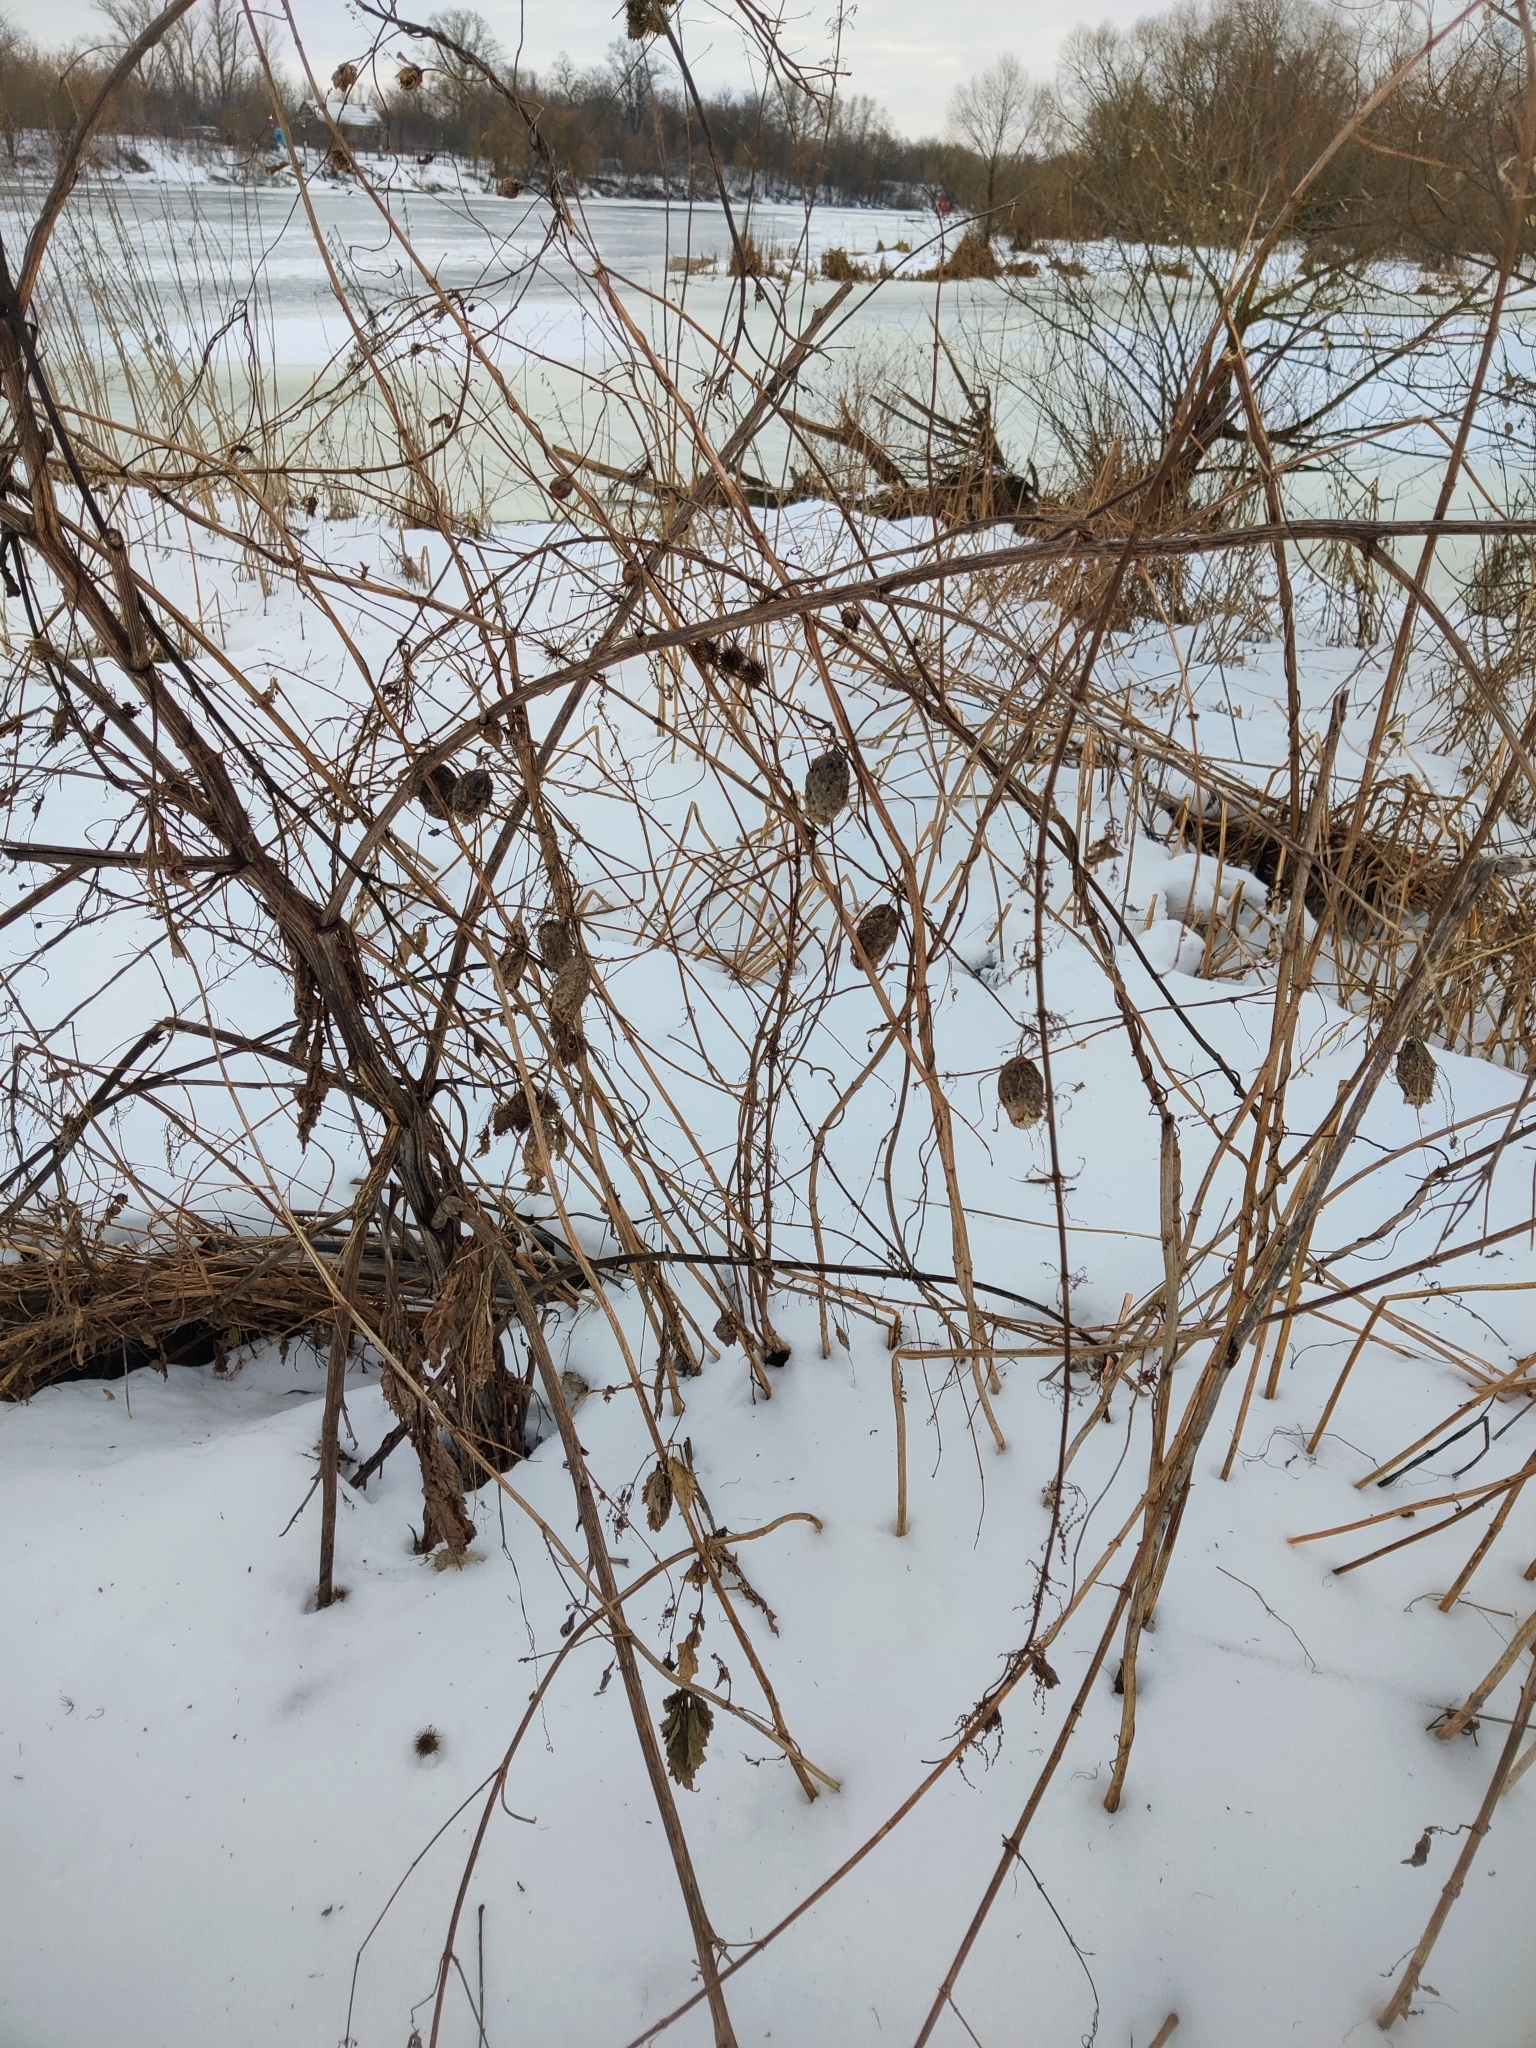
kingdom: Plantae
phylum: Tracheophyta
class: Magnoliopsida
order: Cucurbitales
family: Cucurbitaceae
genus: Echinocystis
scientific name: Echinocystis lobata
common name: Wild cucumber
